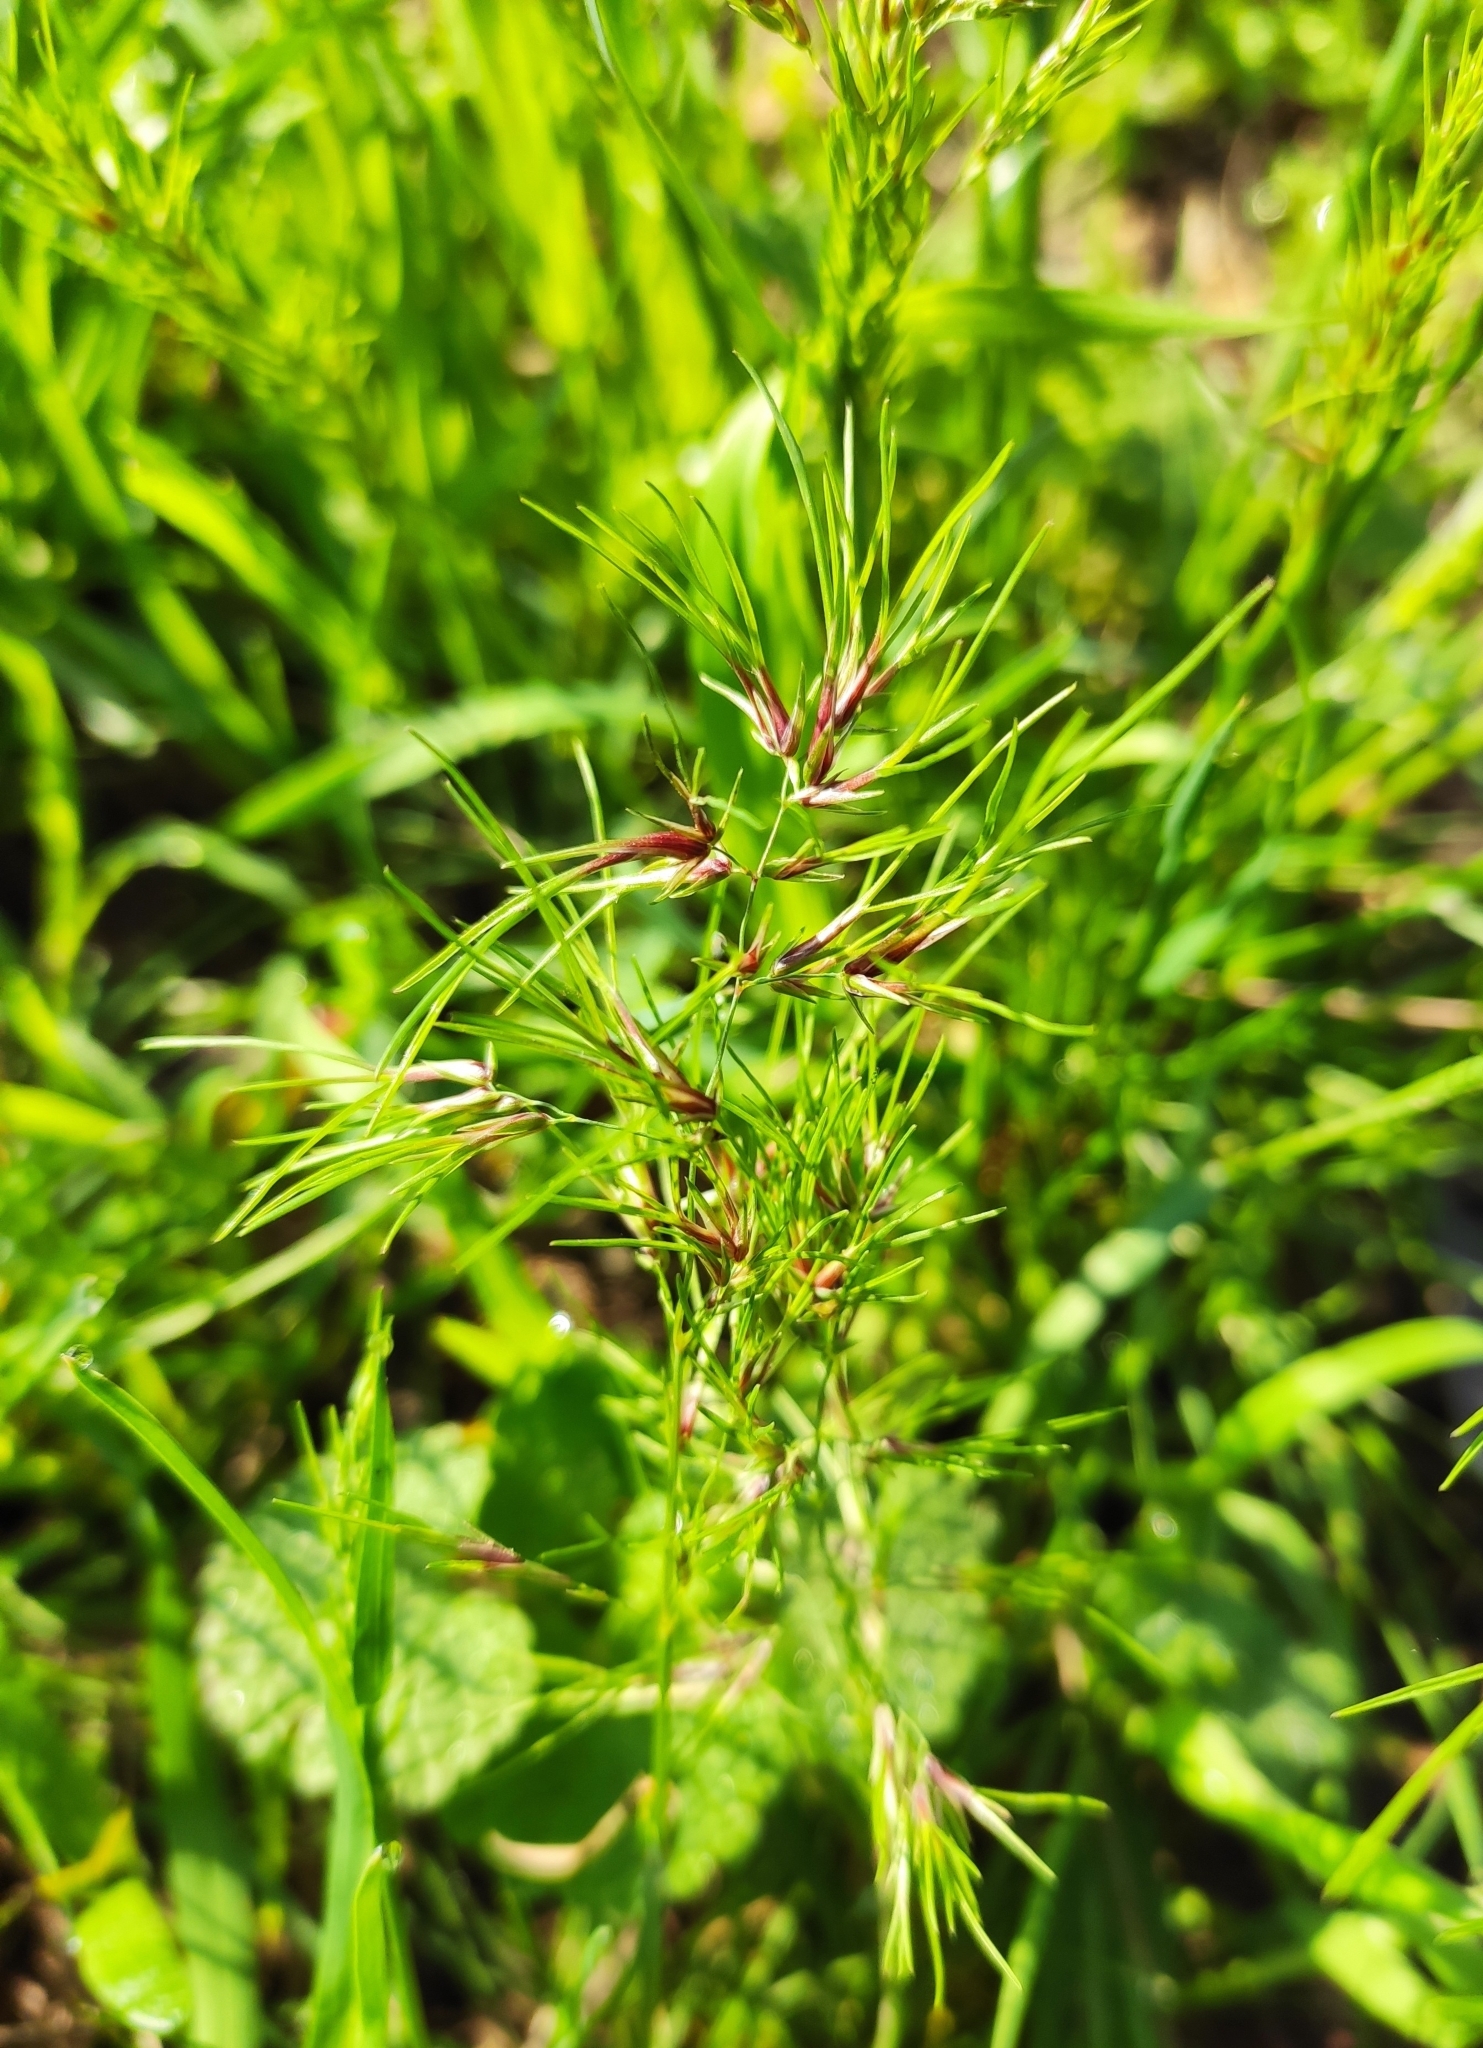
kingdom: Plantae
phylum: Tracheophyta
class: Liliopsida
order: Poales
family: Poaceae
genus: Poa
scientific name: Poa bulbosa
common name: Bulbous bluegrass
